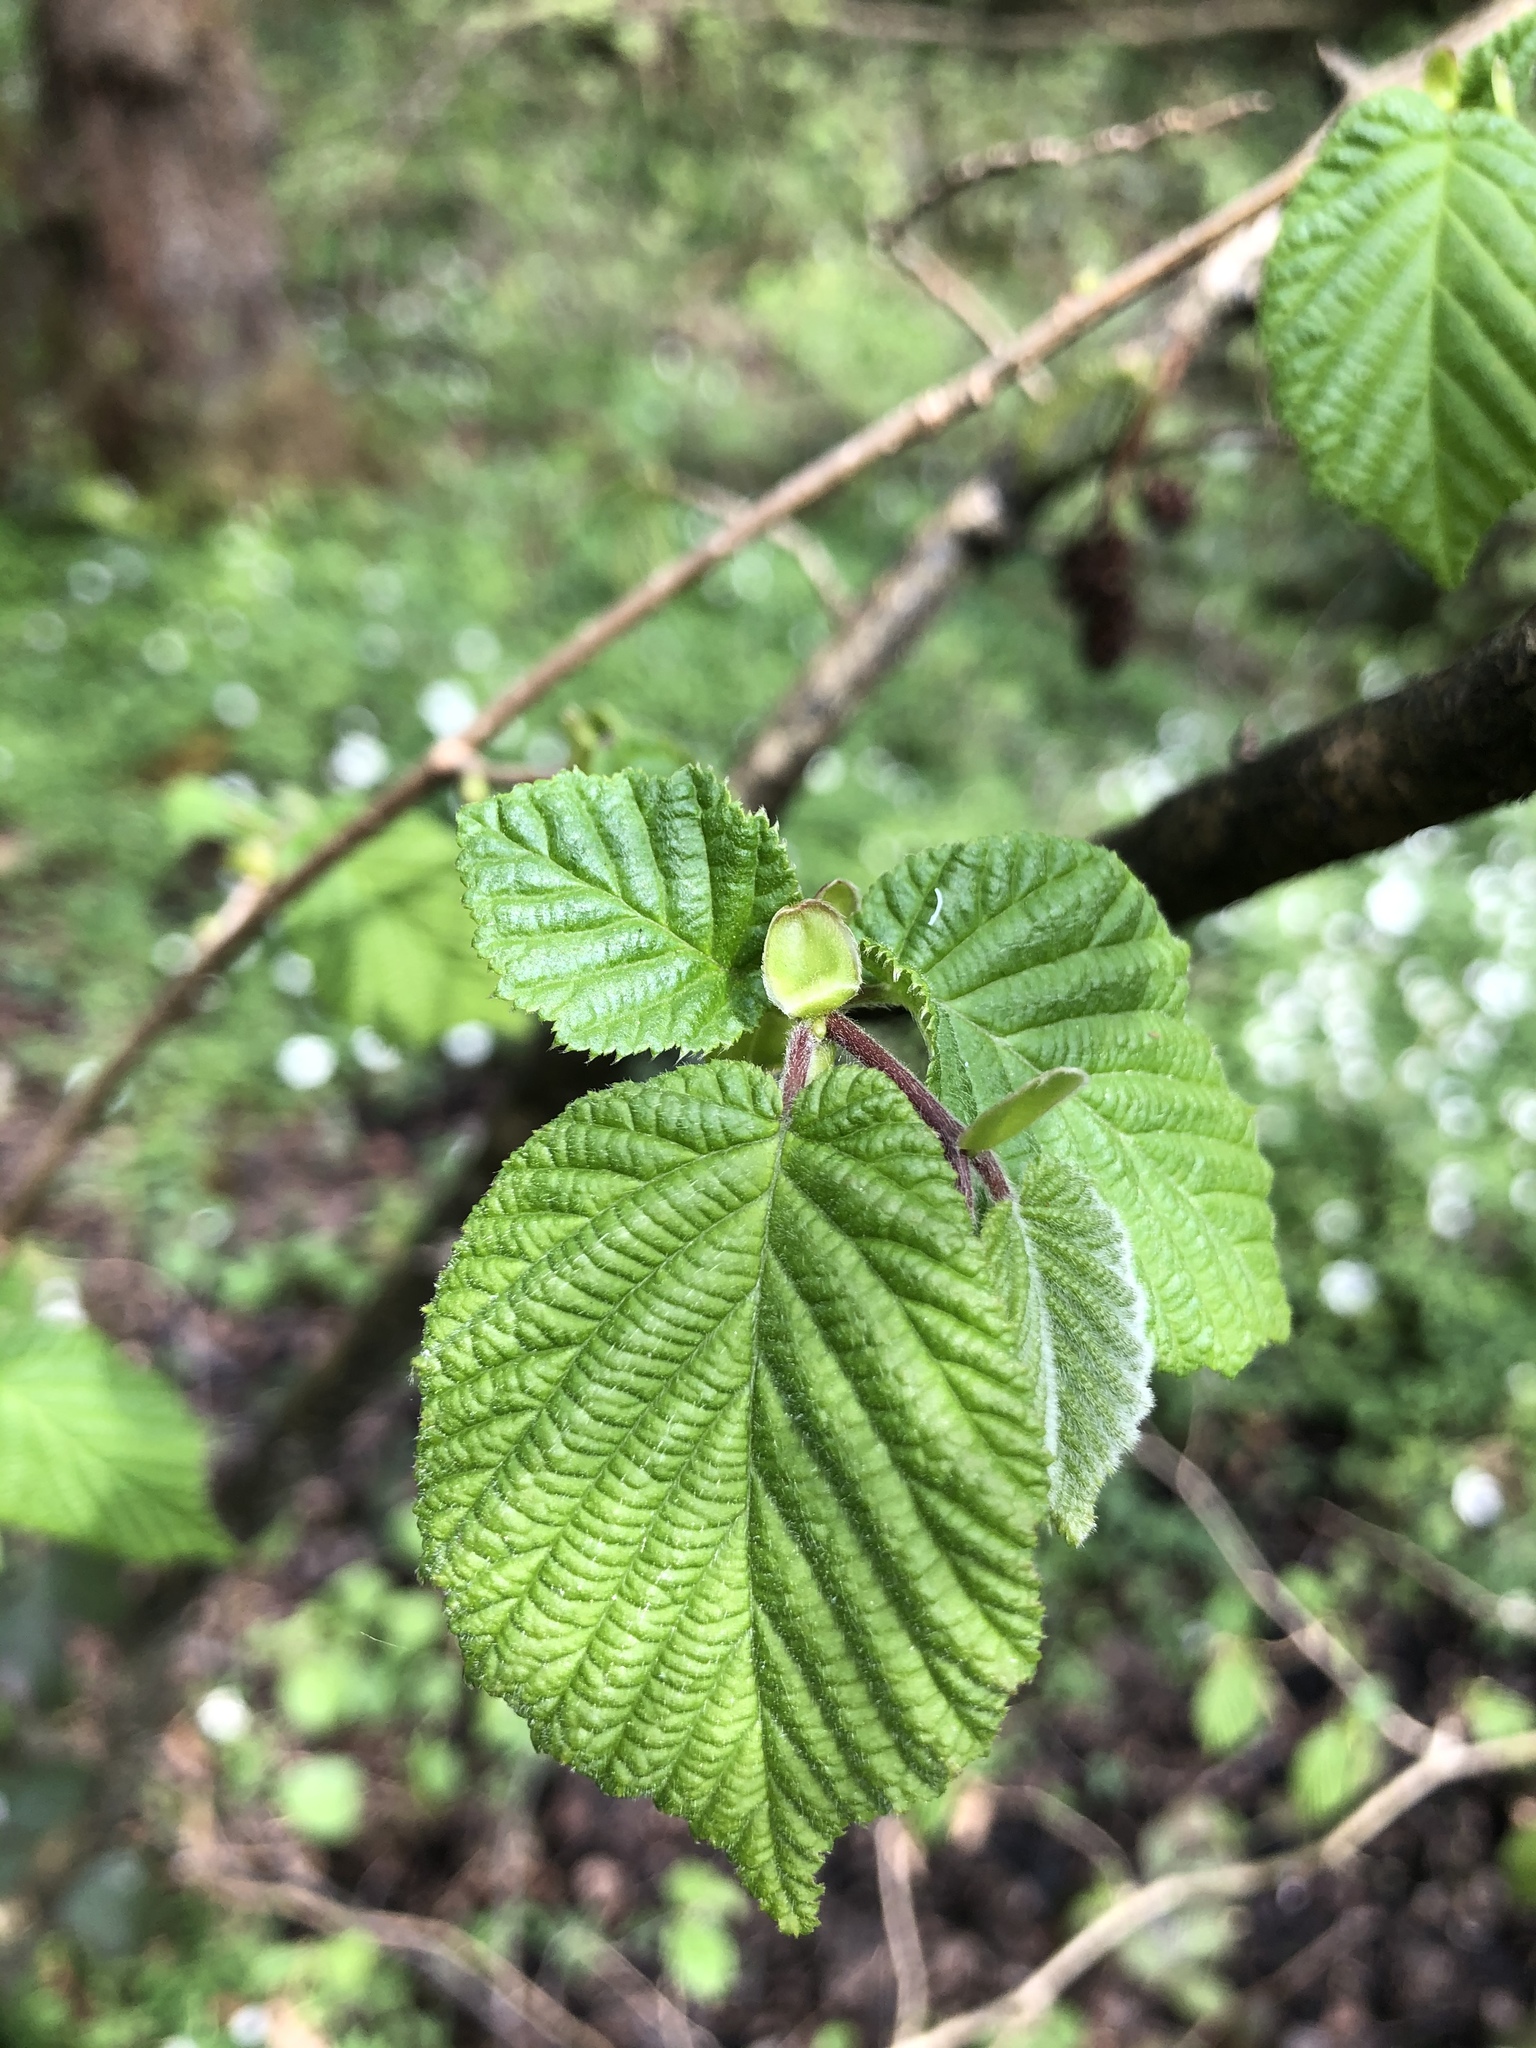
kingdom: Plantae
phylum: Tracheophyta
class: Magnoliopsida
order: Fagales
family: Betulaceae
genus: Corylus
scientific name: Corylus avellana
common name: European hazel
